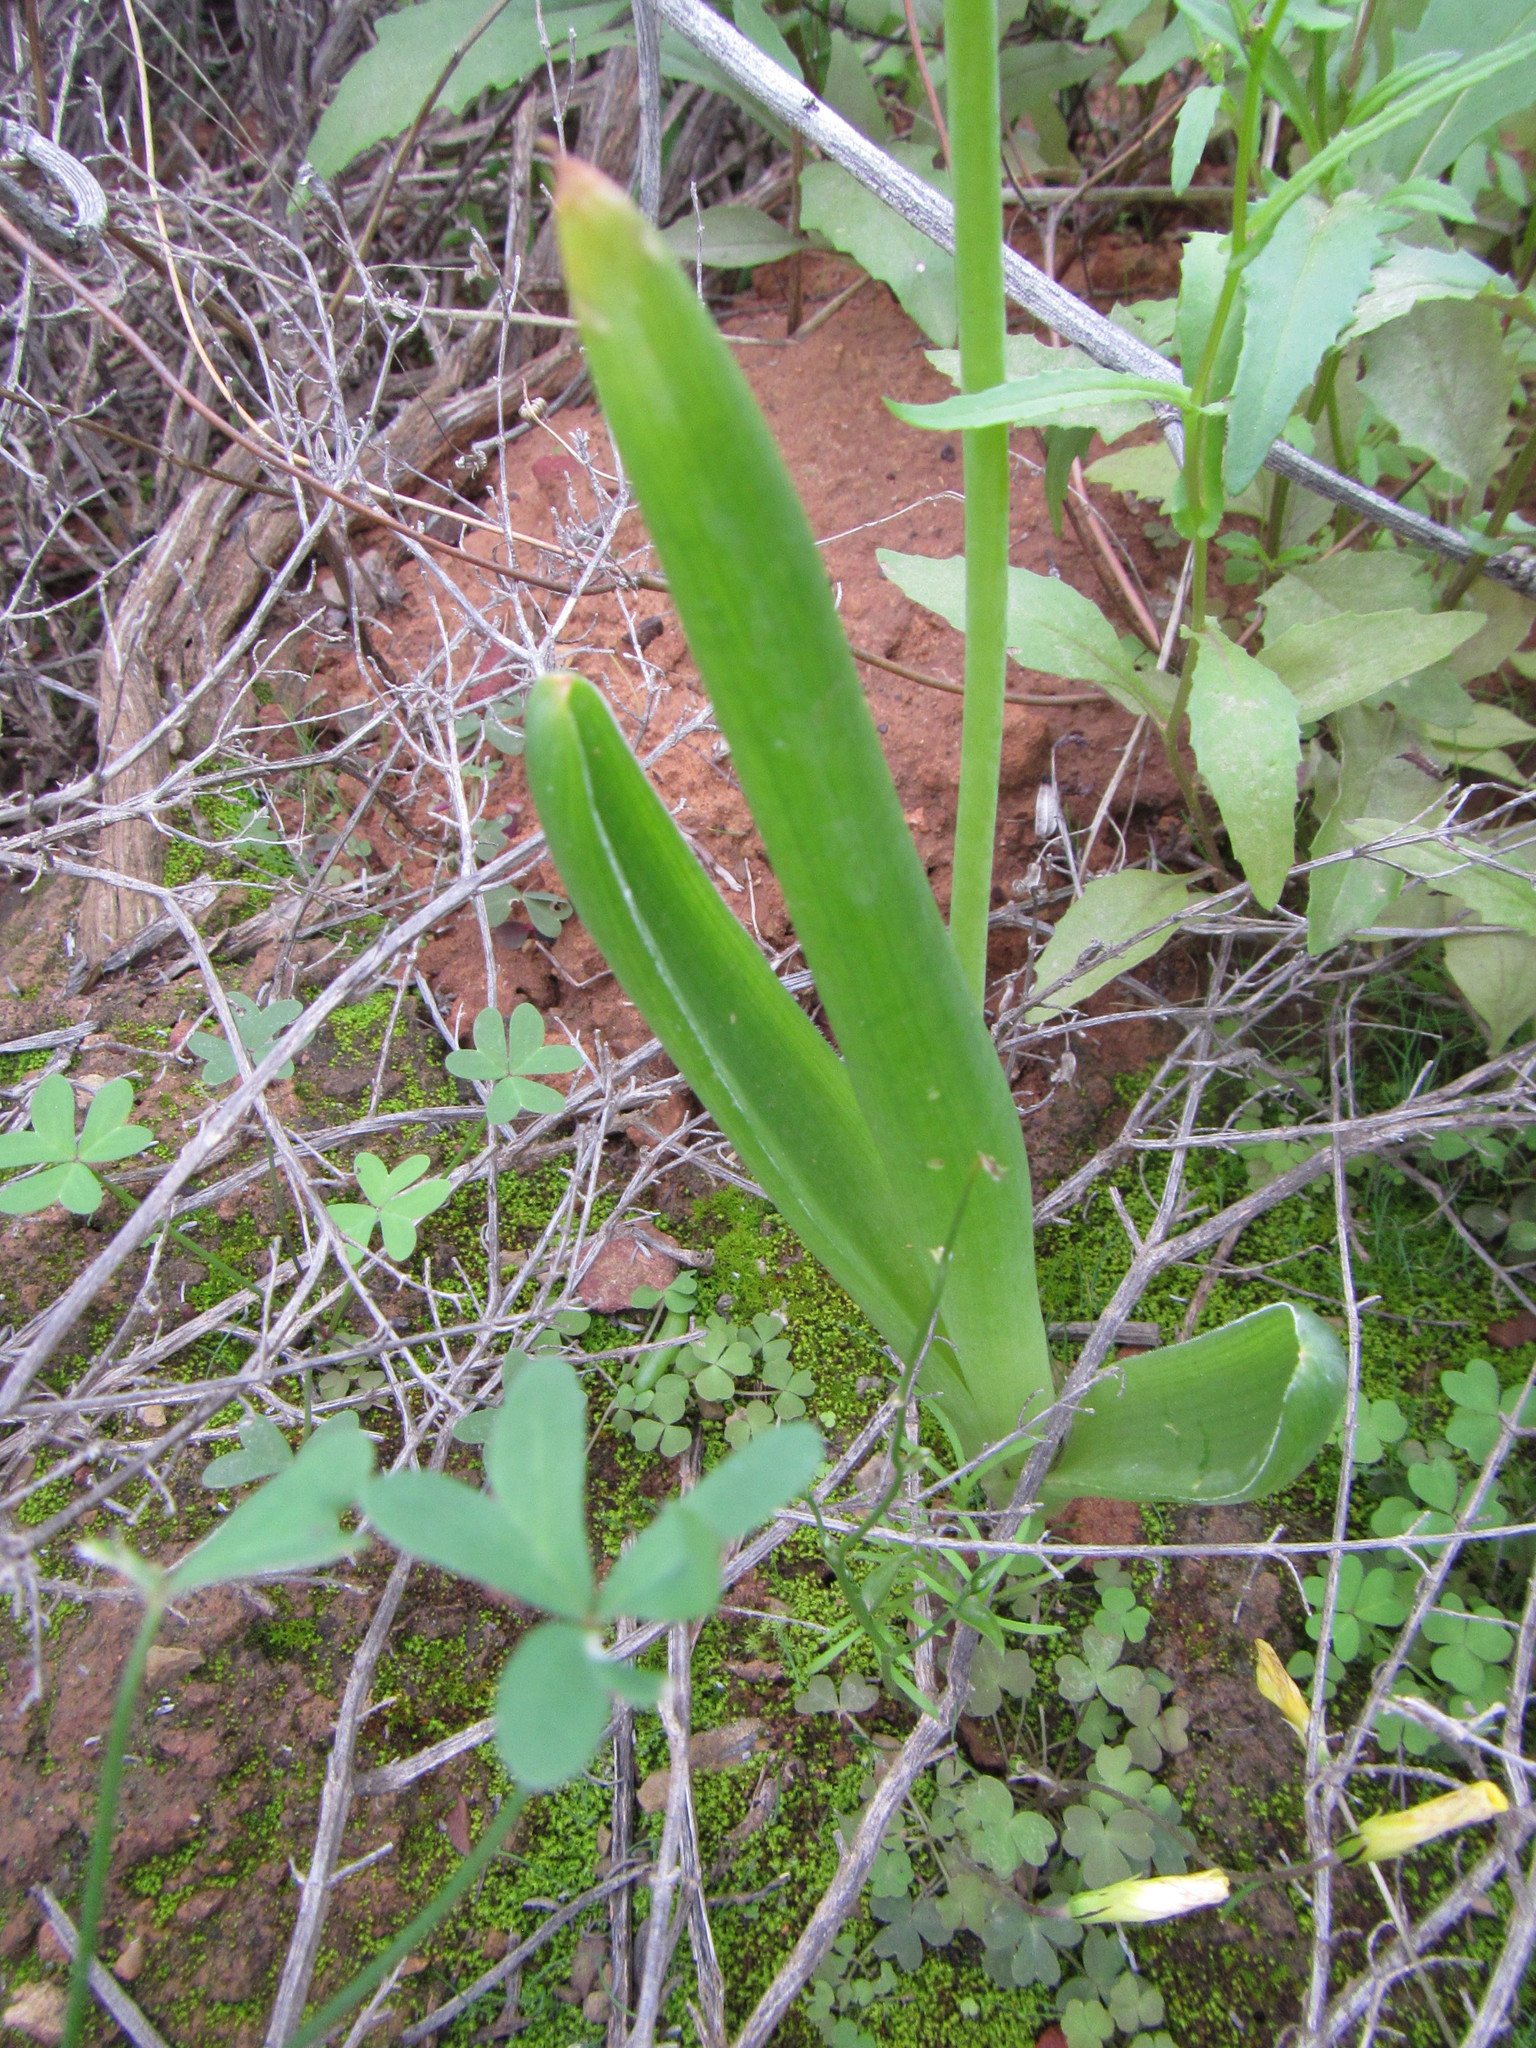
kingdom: Plantae
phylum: Tracheophyta
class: Liliopsida
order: Asparagales
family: Asphodelaceae
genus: Bulbine
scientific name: Bulbine navicularifolia
